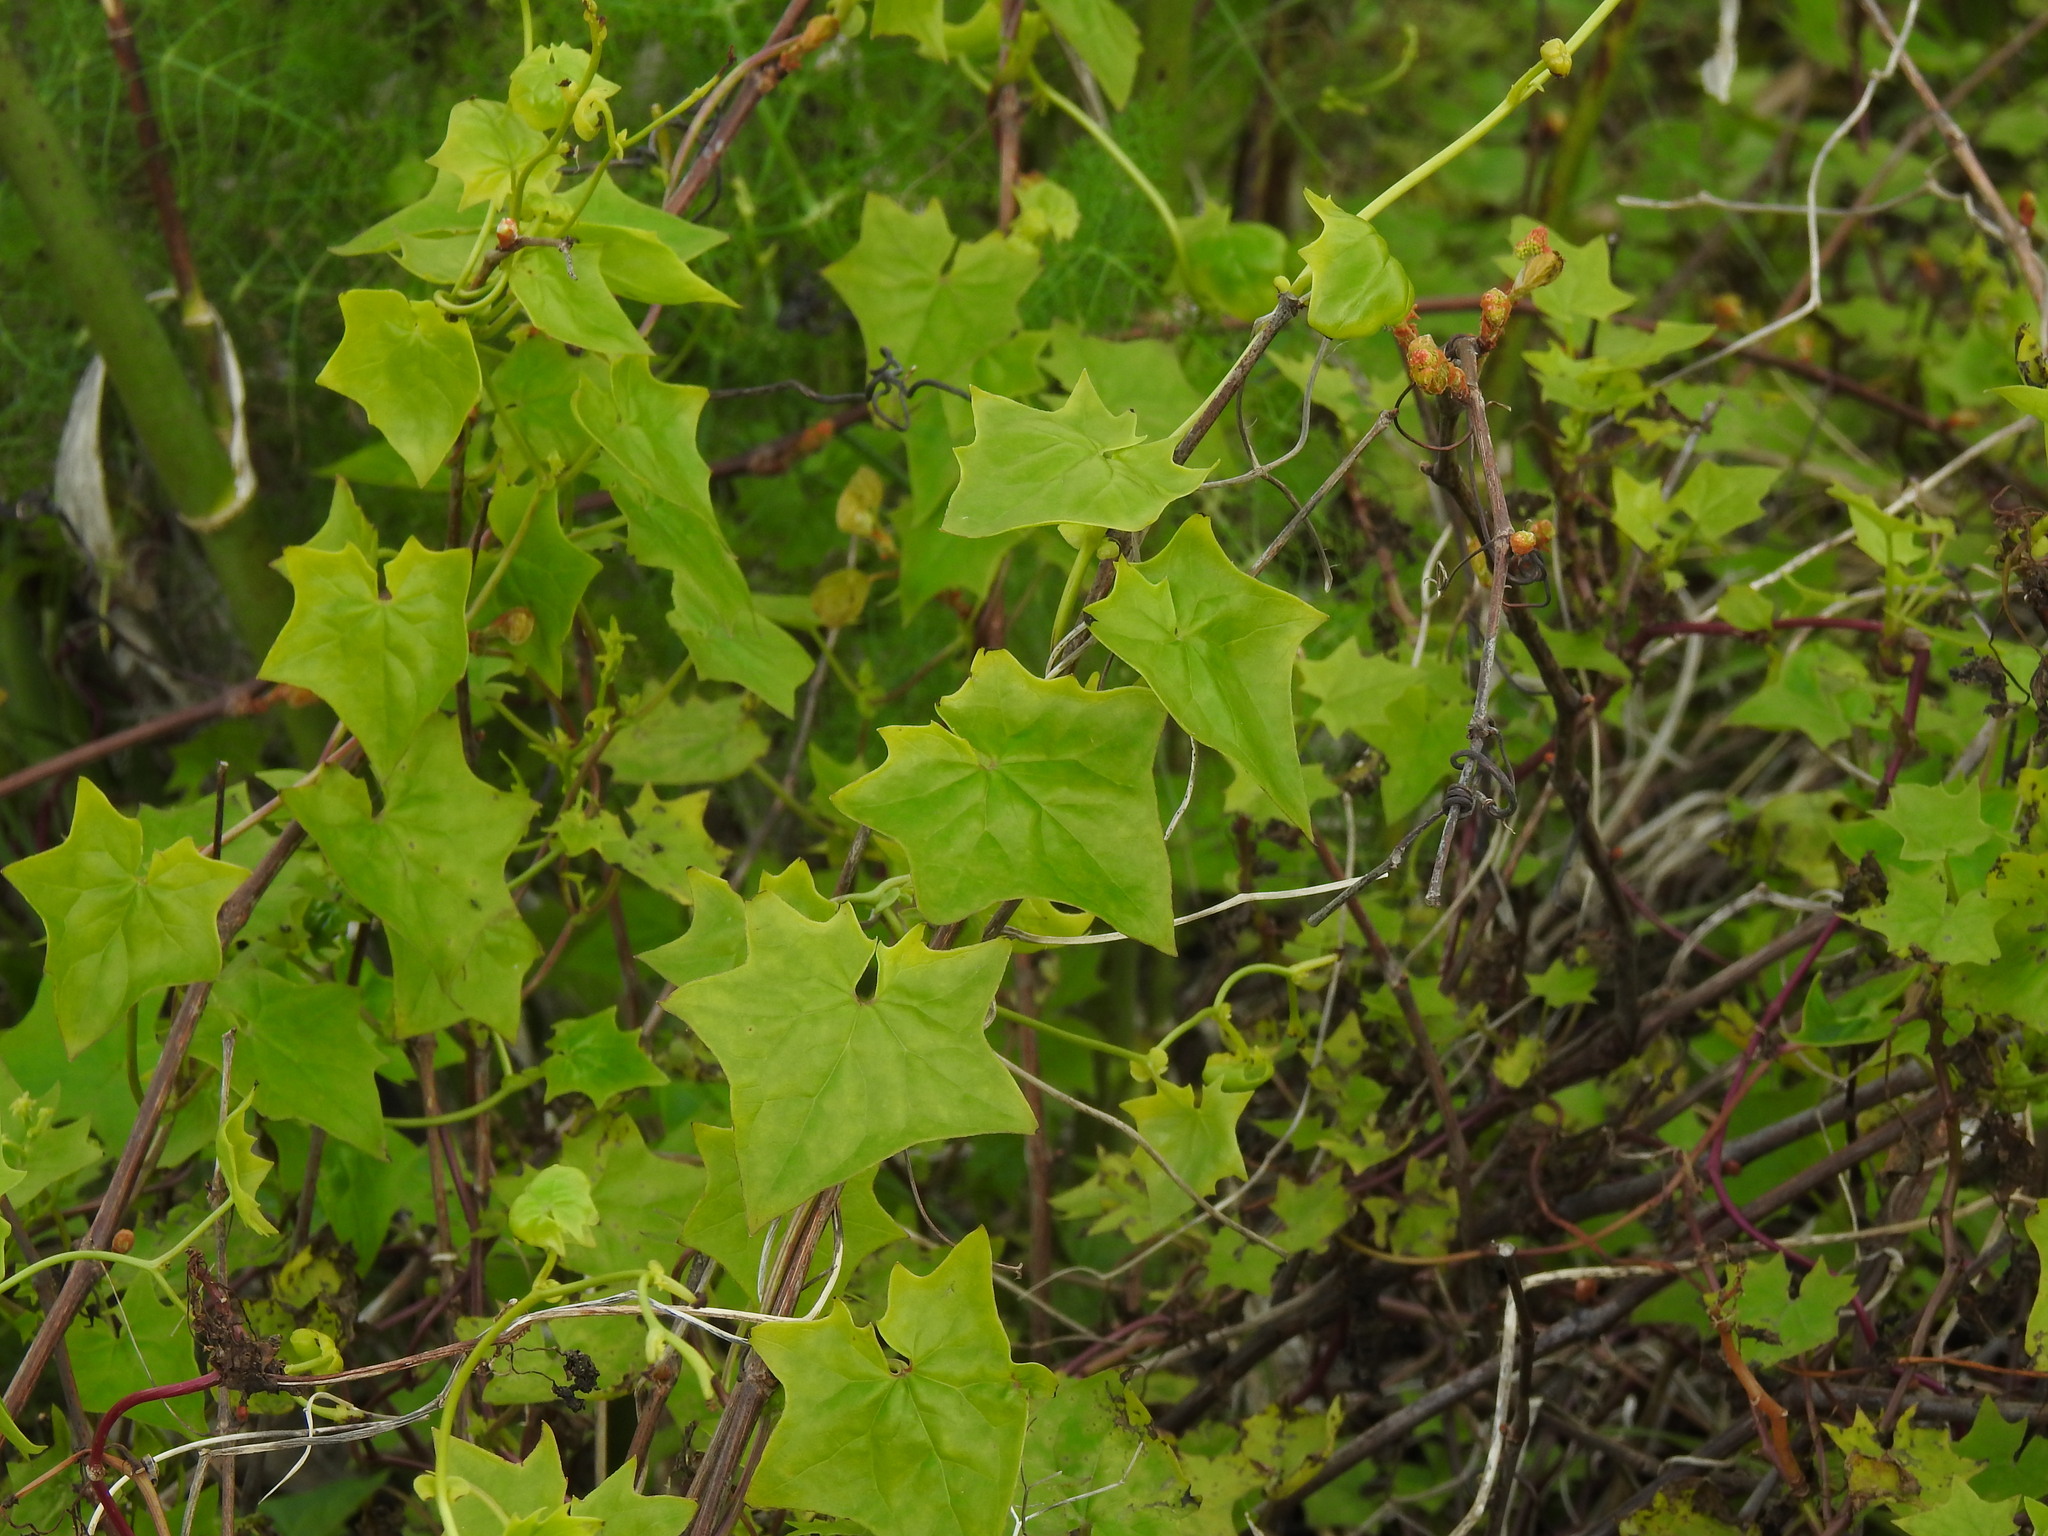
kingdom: Plantae
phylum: Tracheophyta
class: Magnoliopsida
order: Asterales
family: Asteraceae
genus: Delairea
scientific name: Delairea odorata
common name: Cape-ivy
